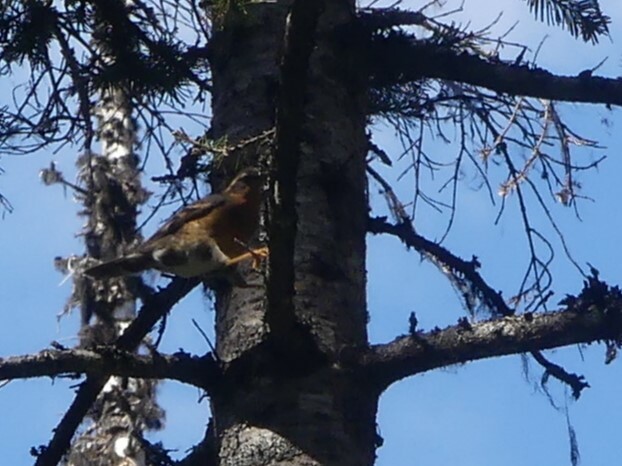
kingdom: Animalia
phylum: Chordata
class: Aves
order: Passeriformes
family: Turdidae
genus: Ixoreus
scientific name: Ixoreus naevius
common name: Varied thrush
